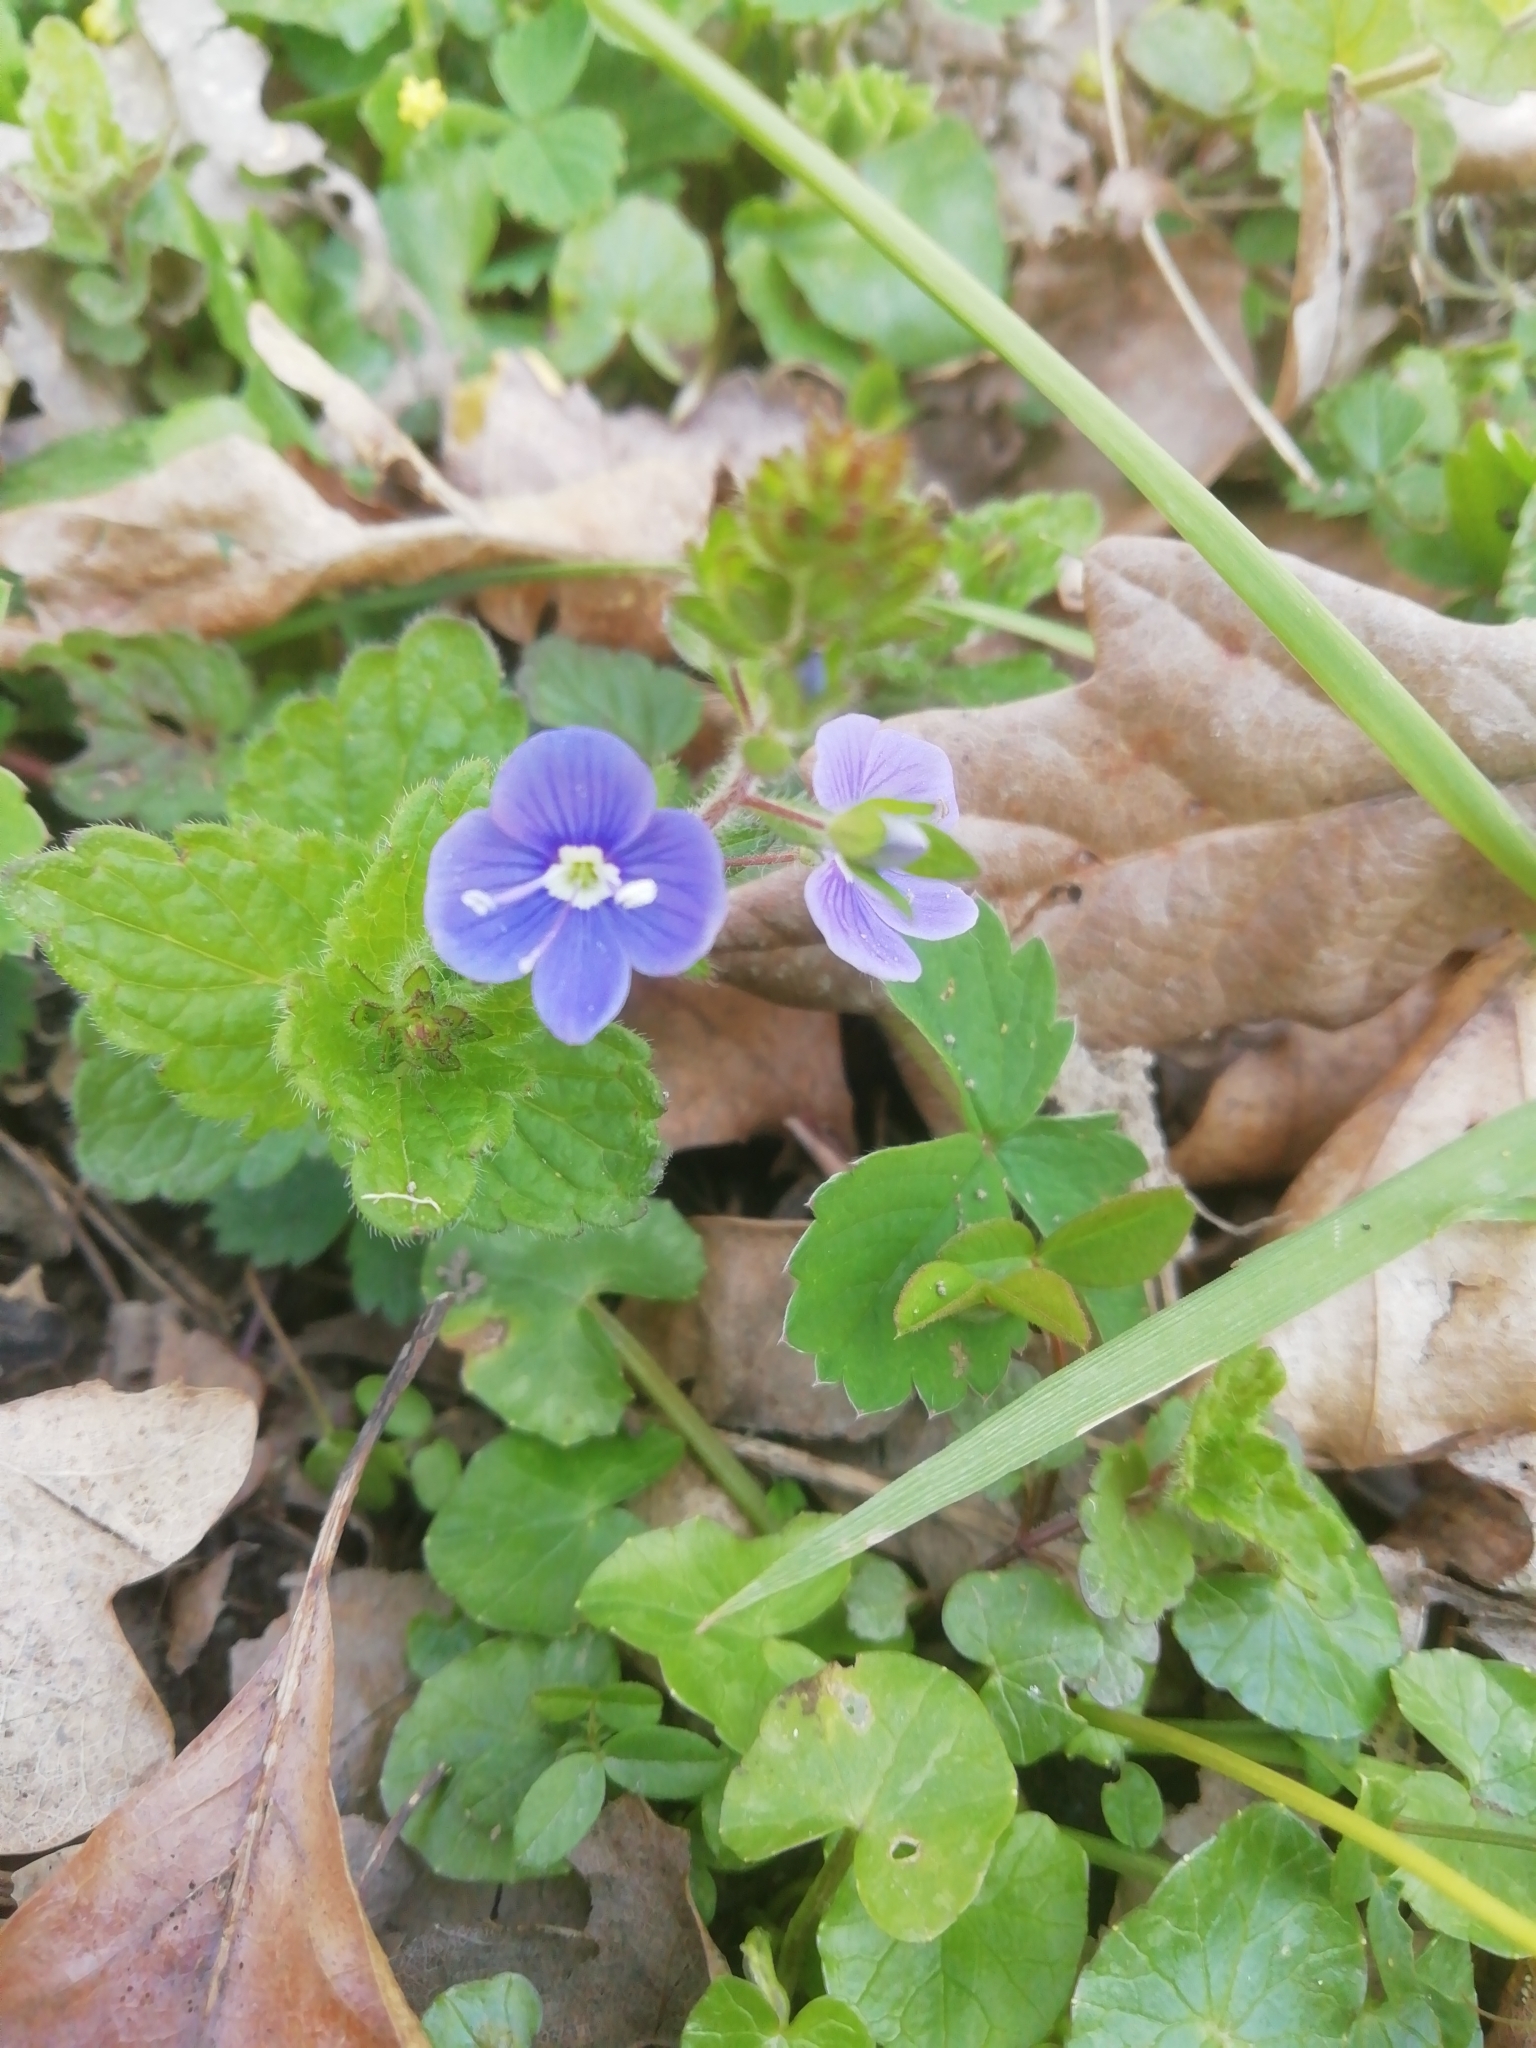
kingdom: Plantae
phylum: Tracheophyta
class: Magnoliopsida
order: Lamiales
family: Plantaginaceae
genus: Veronica
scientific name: Veronica chamaedrys
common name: Germander speedwell
